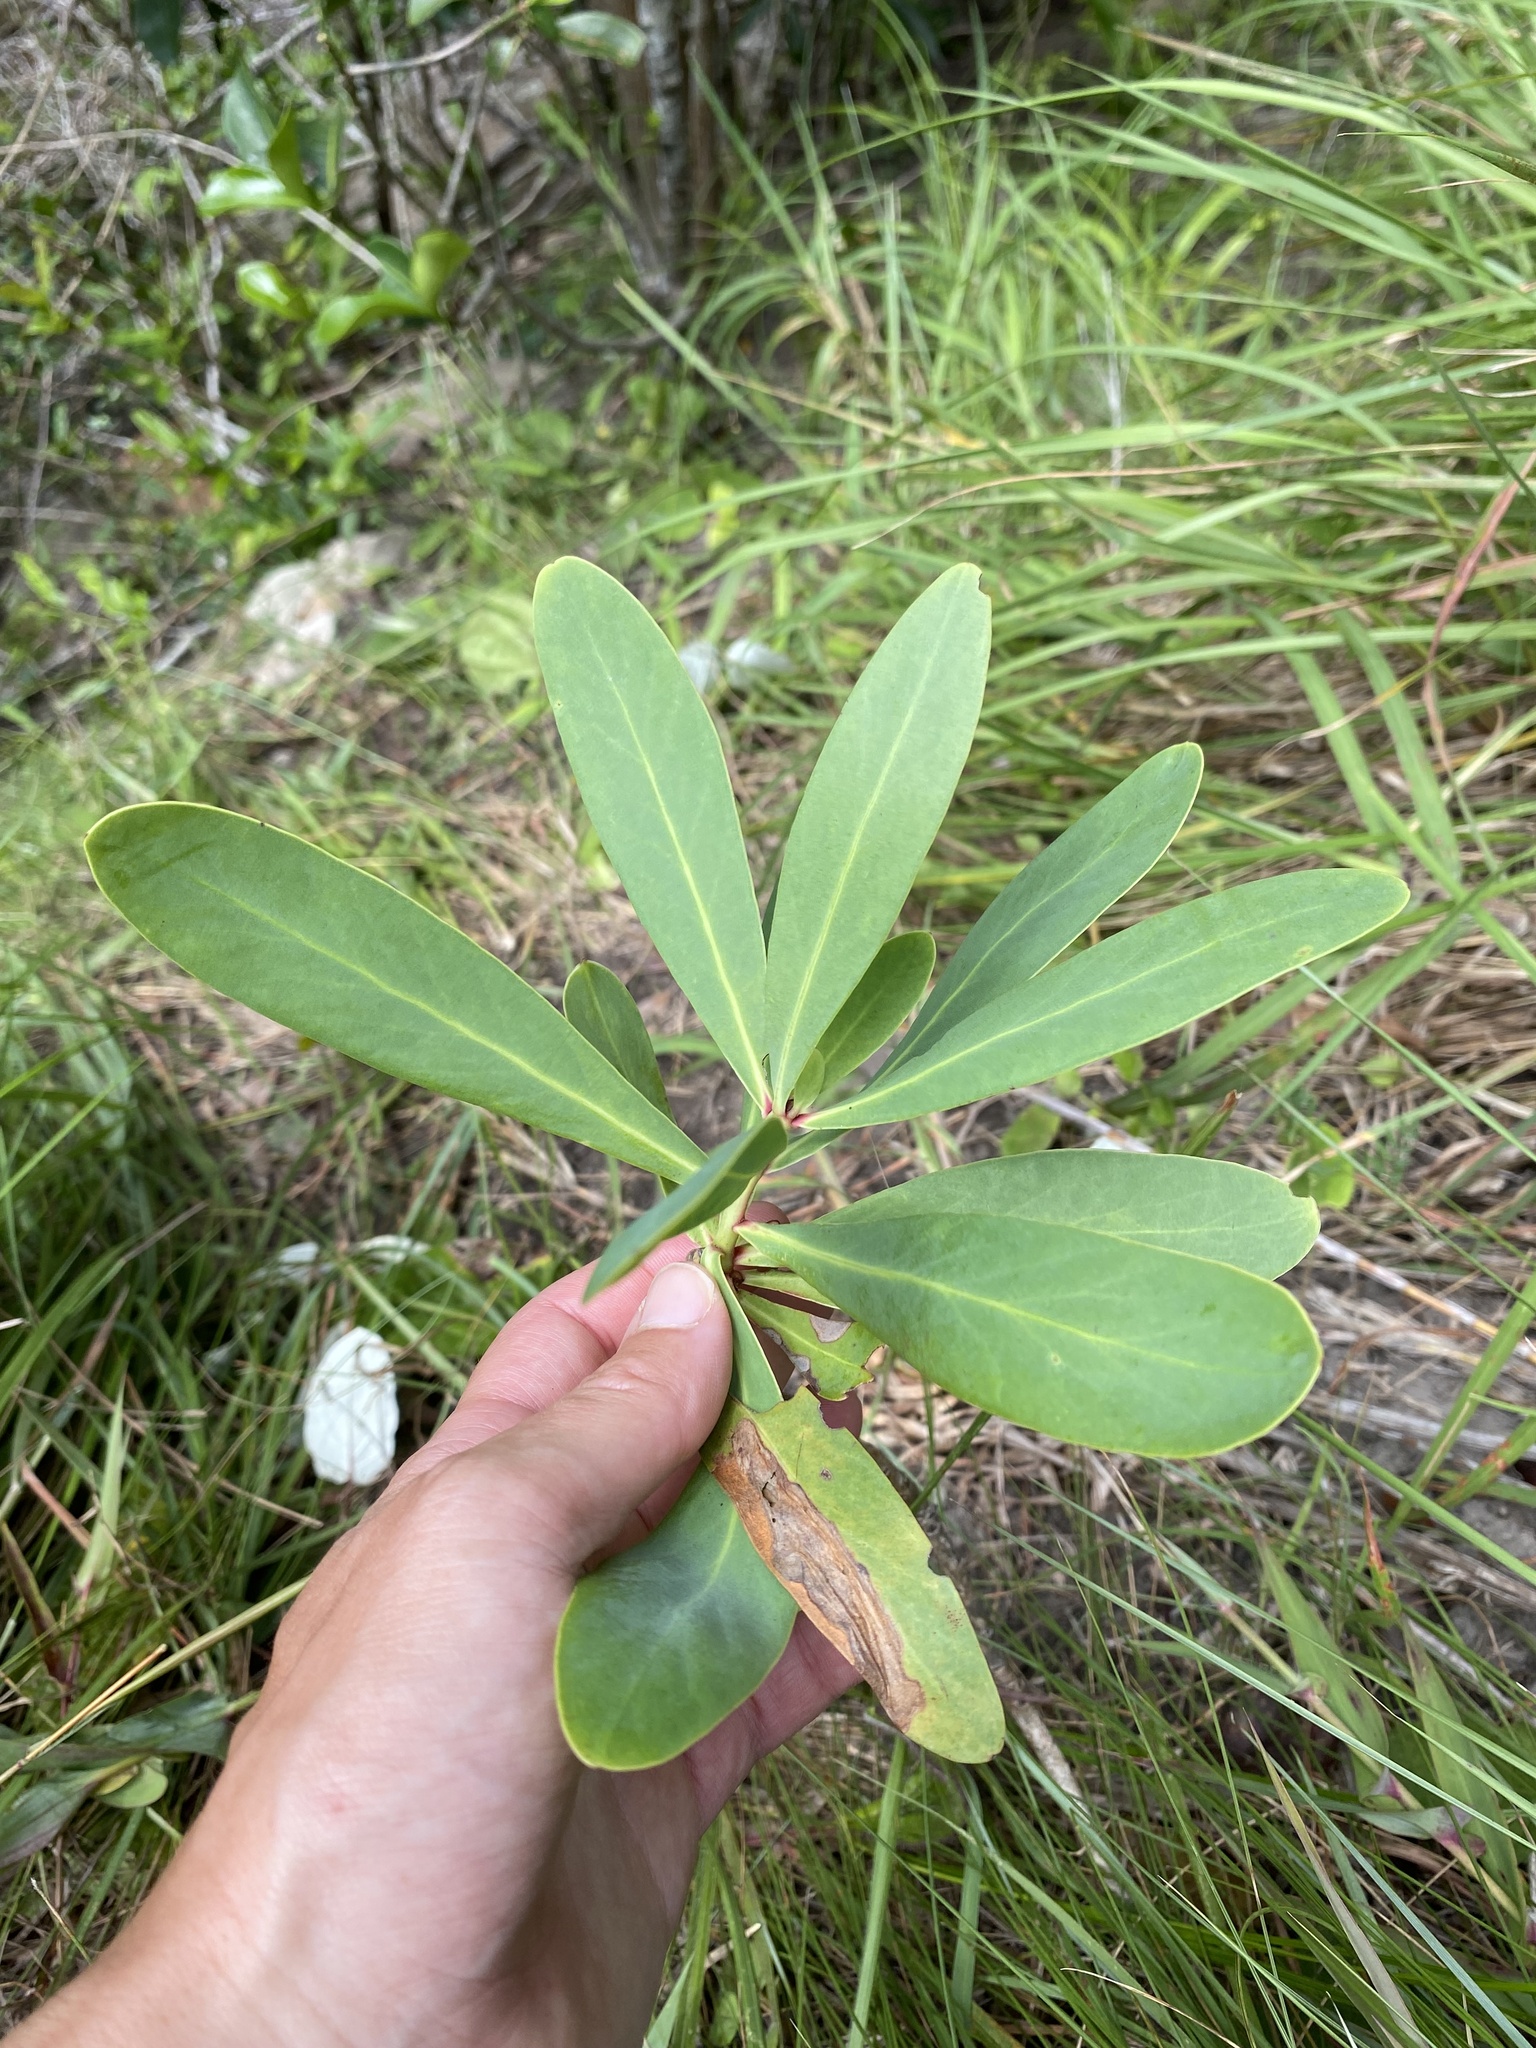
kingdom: Plantae
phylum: Tracheophyta
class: Magnoliopsida
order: Proteales
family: Proteaceae
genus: Protea
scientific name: Protea caffra
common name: Common sugarbush
